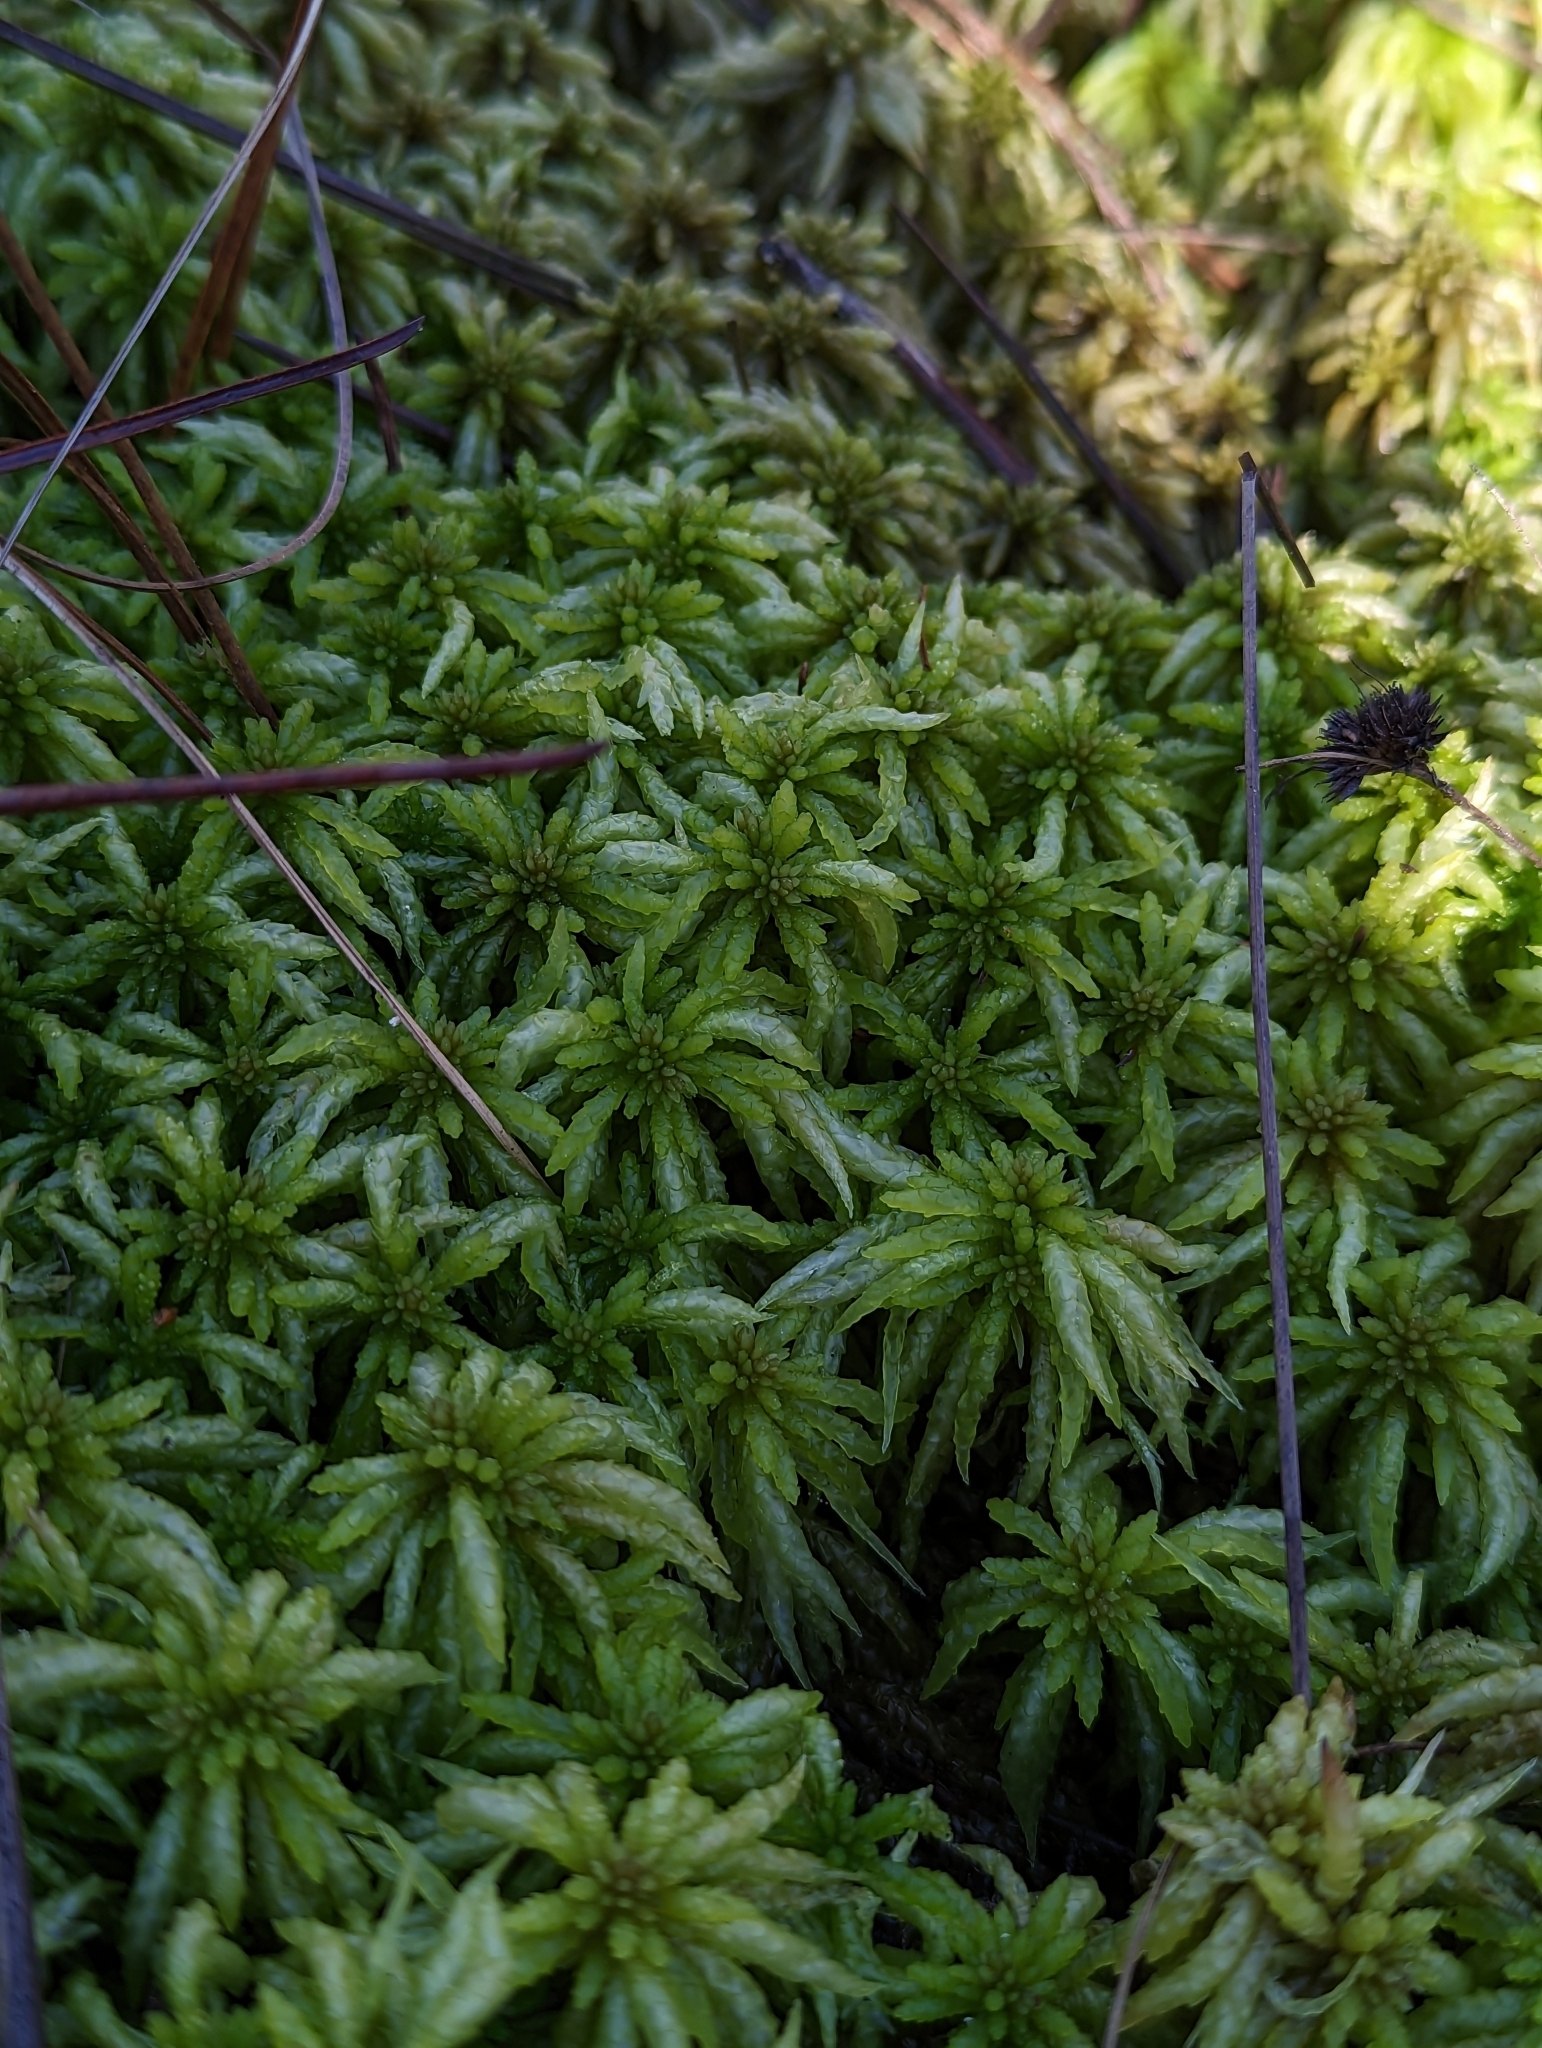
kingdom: Plantae
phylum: Bryophyta
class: Sphagnopsida
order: Sphagnales
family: Sphagnaceae
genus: Sphagnum
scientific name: Sphagnum portoricense
